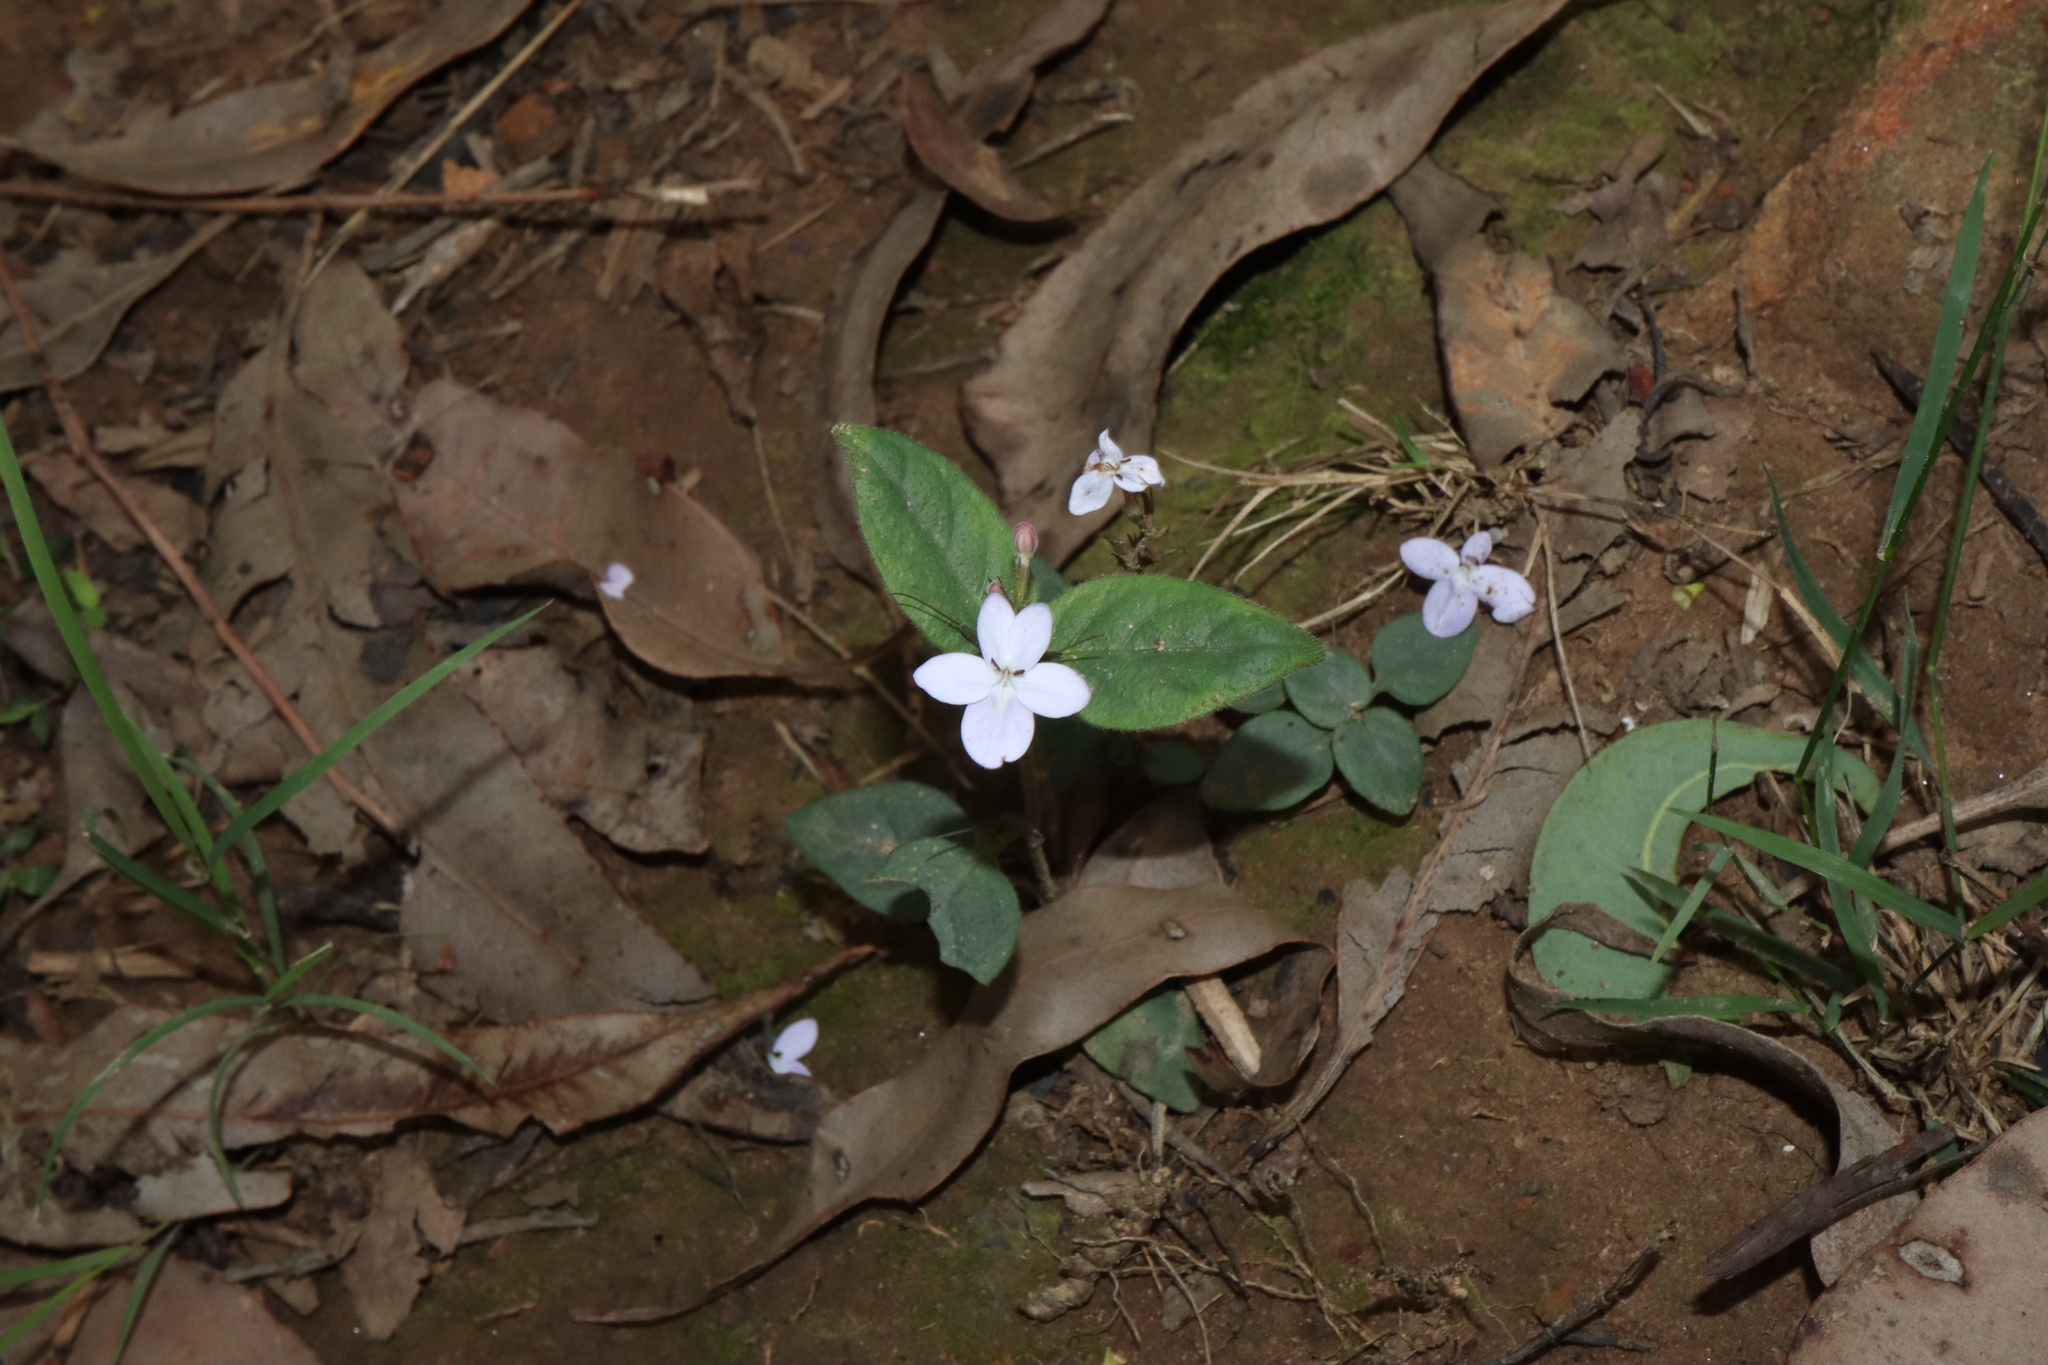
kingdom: Plantae
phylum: Tracheophyta
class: Magnoliopsida
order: Lamiales
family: Acanthaceae
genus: Pseuderanthemum
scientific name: Pseuderanthemum variabile
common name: Night and afternoon
